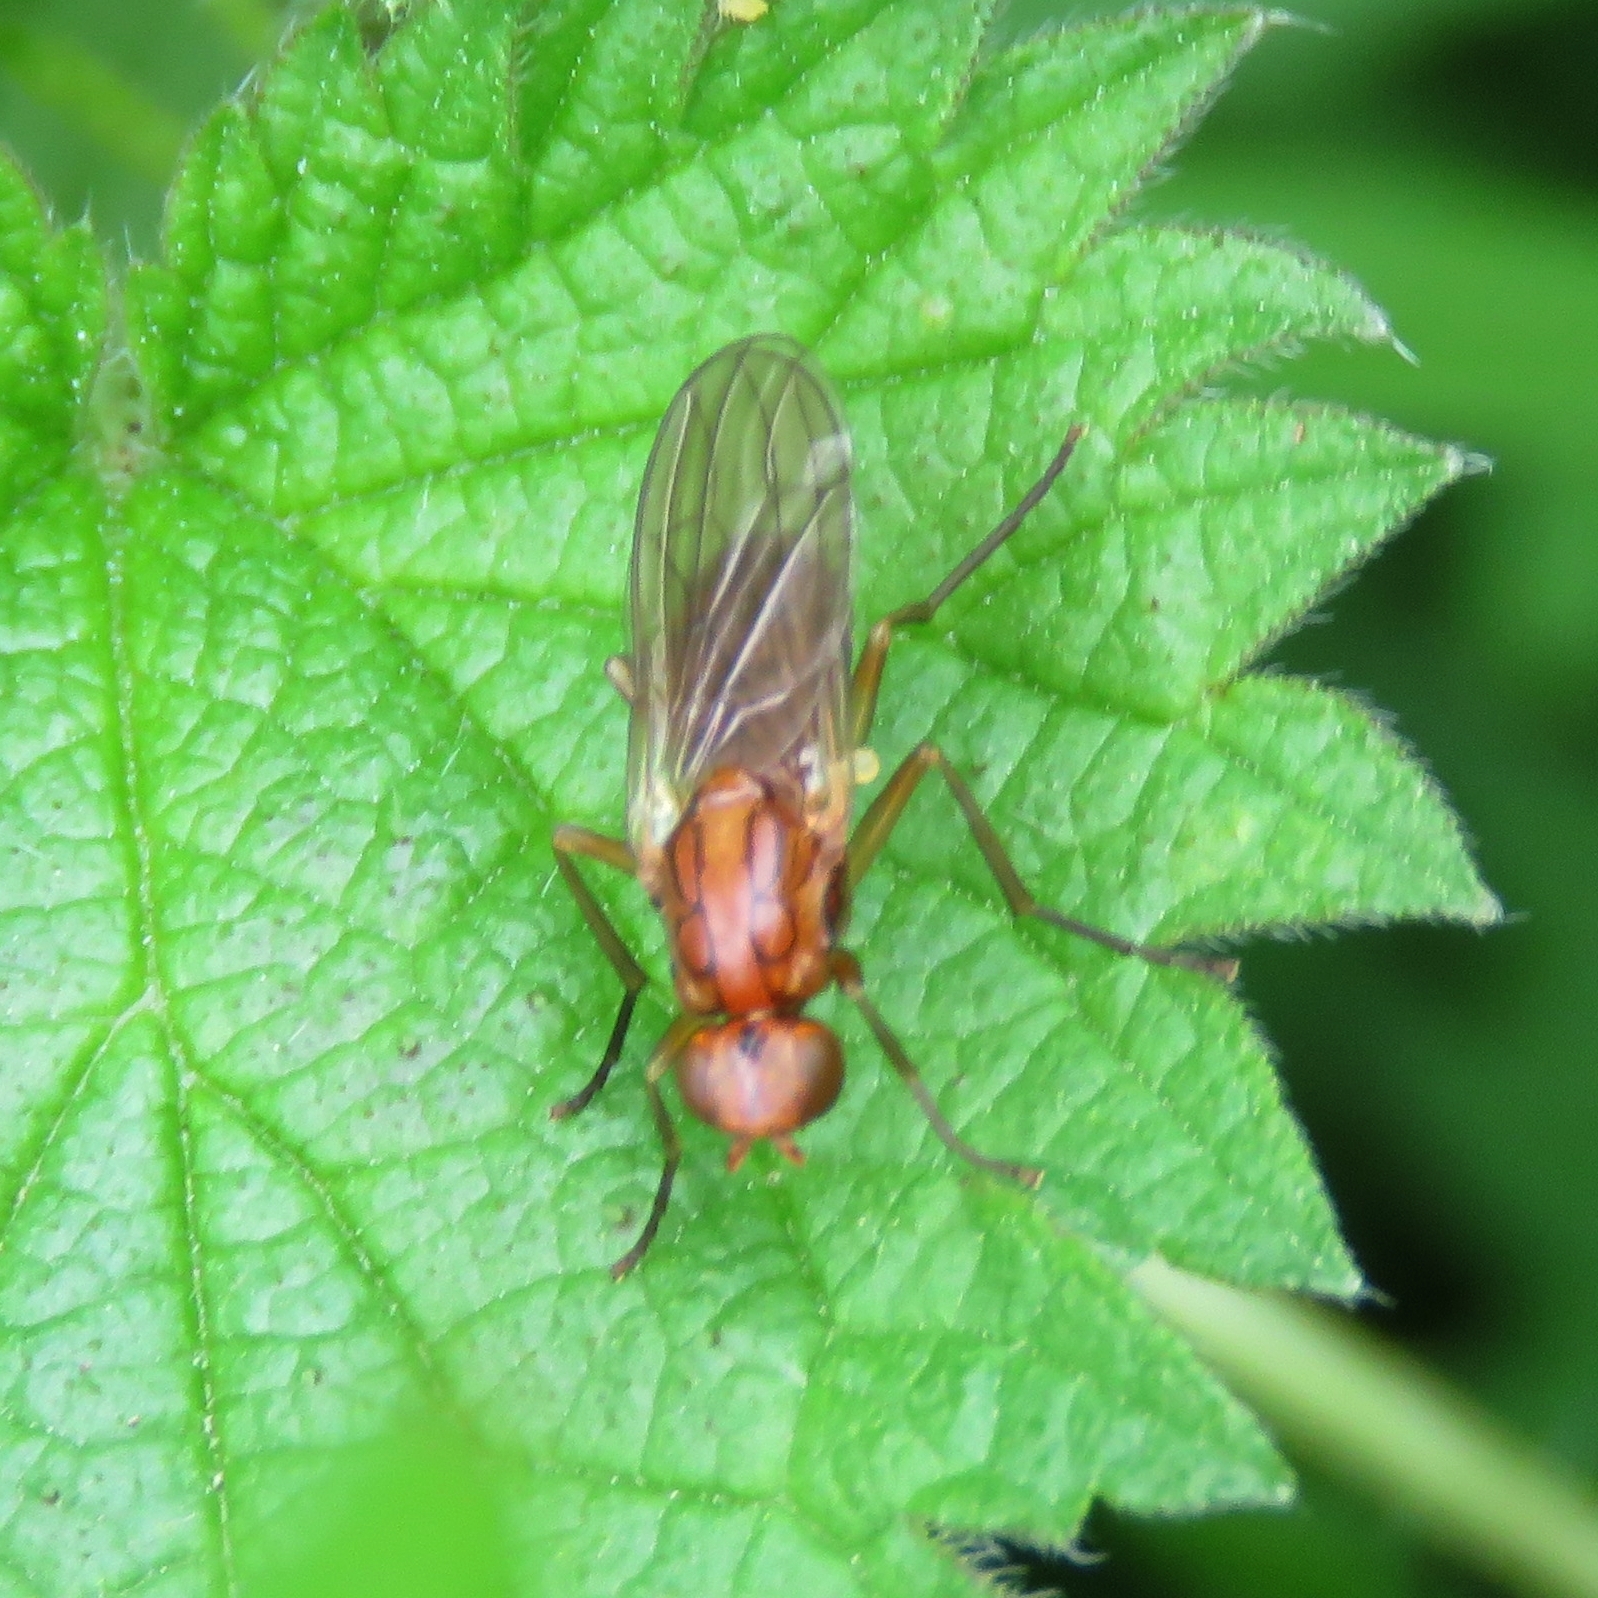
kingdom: Animalia
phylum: Arthropoda
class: Insecta
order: Diptera
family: Psilidae
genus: Psila
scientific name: Psila fimetaria
